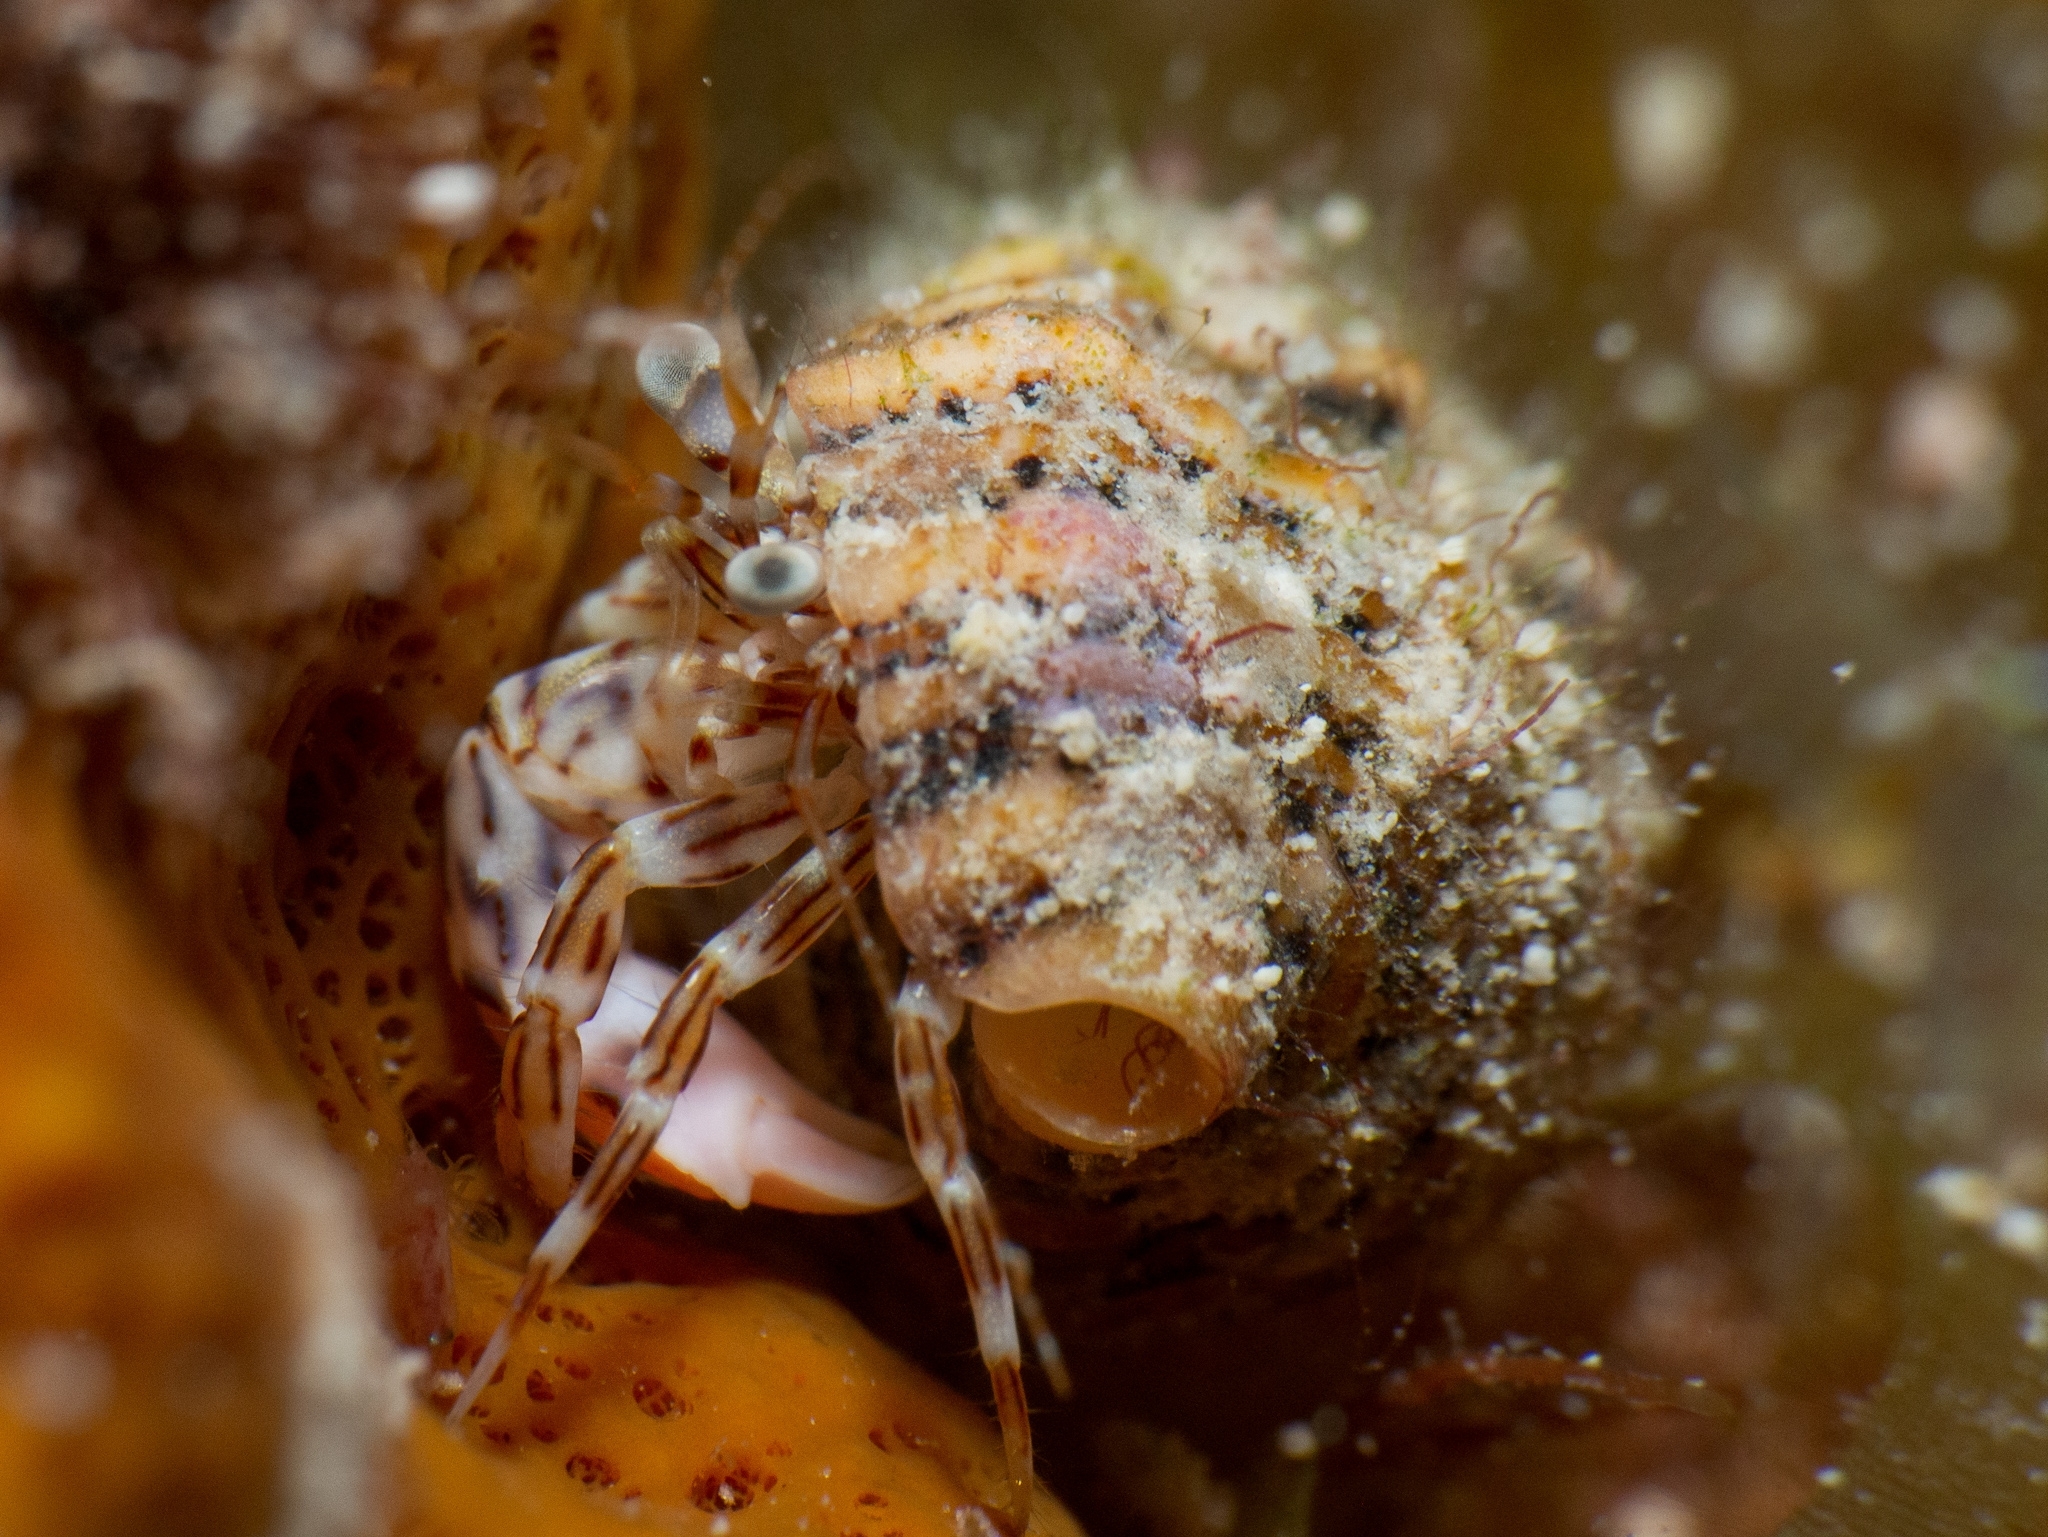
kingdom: Animalia
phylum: Arthropoda
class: Malacostraca
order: Decapoda
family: Paguridae
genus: Phimochirus
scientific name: Phimochirus holthuisi
